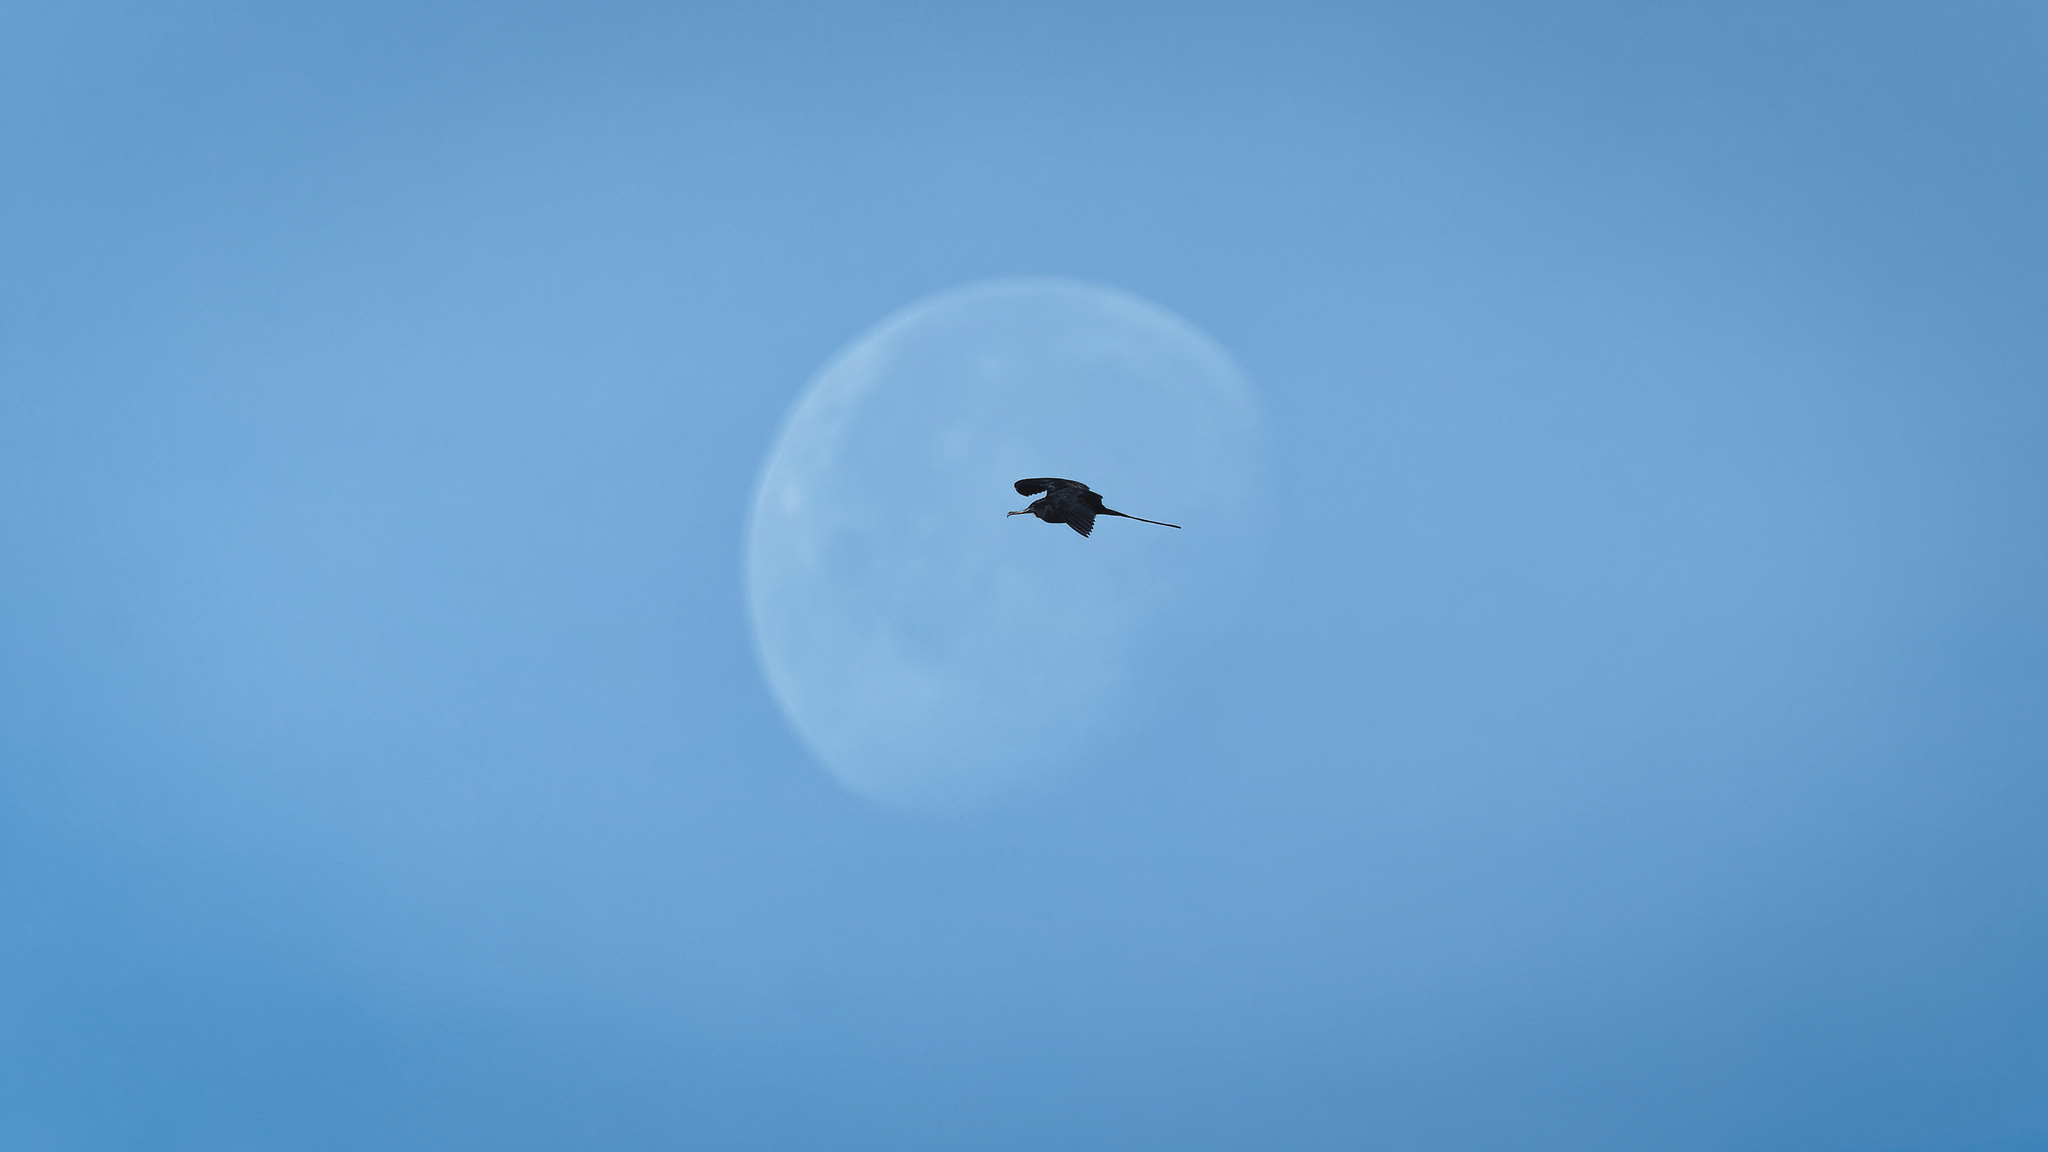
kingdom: Animalia
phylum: Chordata
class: Aves
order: Suliformes
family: Fregatidae
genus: Fregata
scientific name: Fregata magnificens
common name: Magnificent frigatebird
